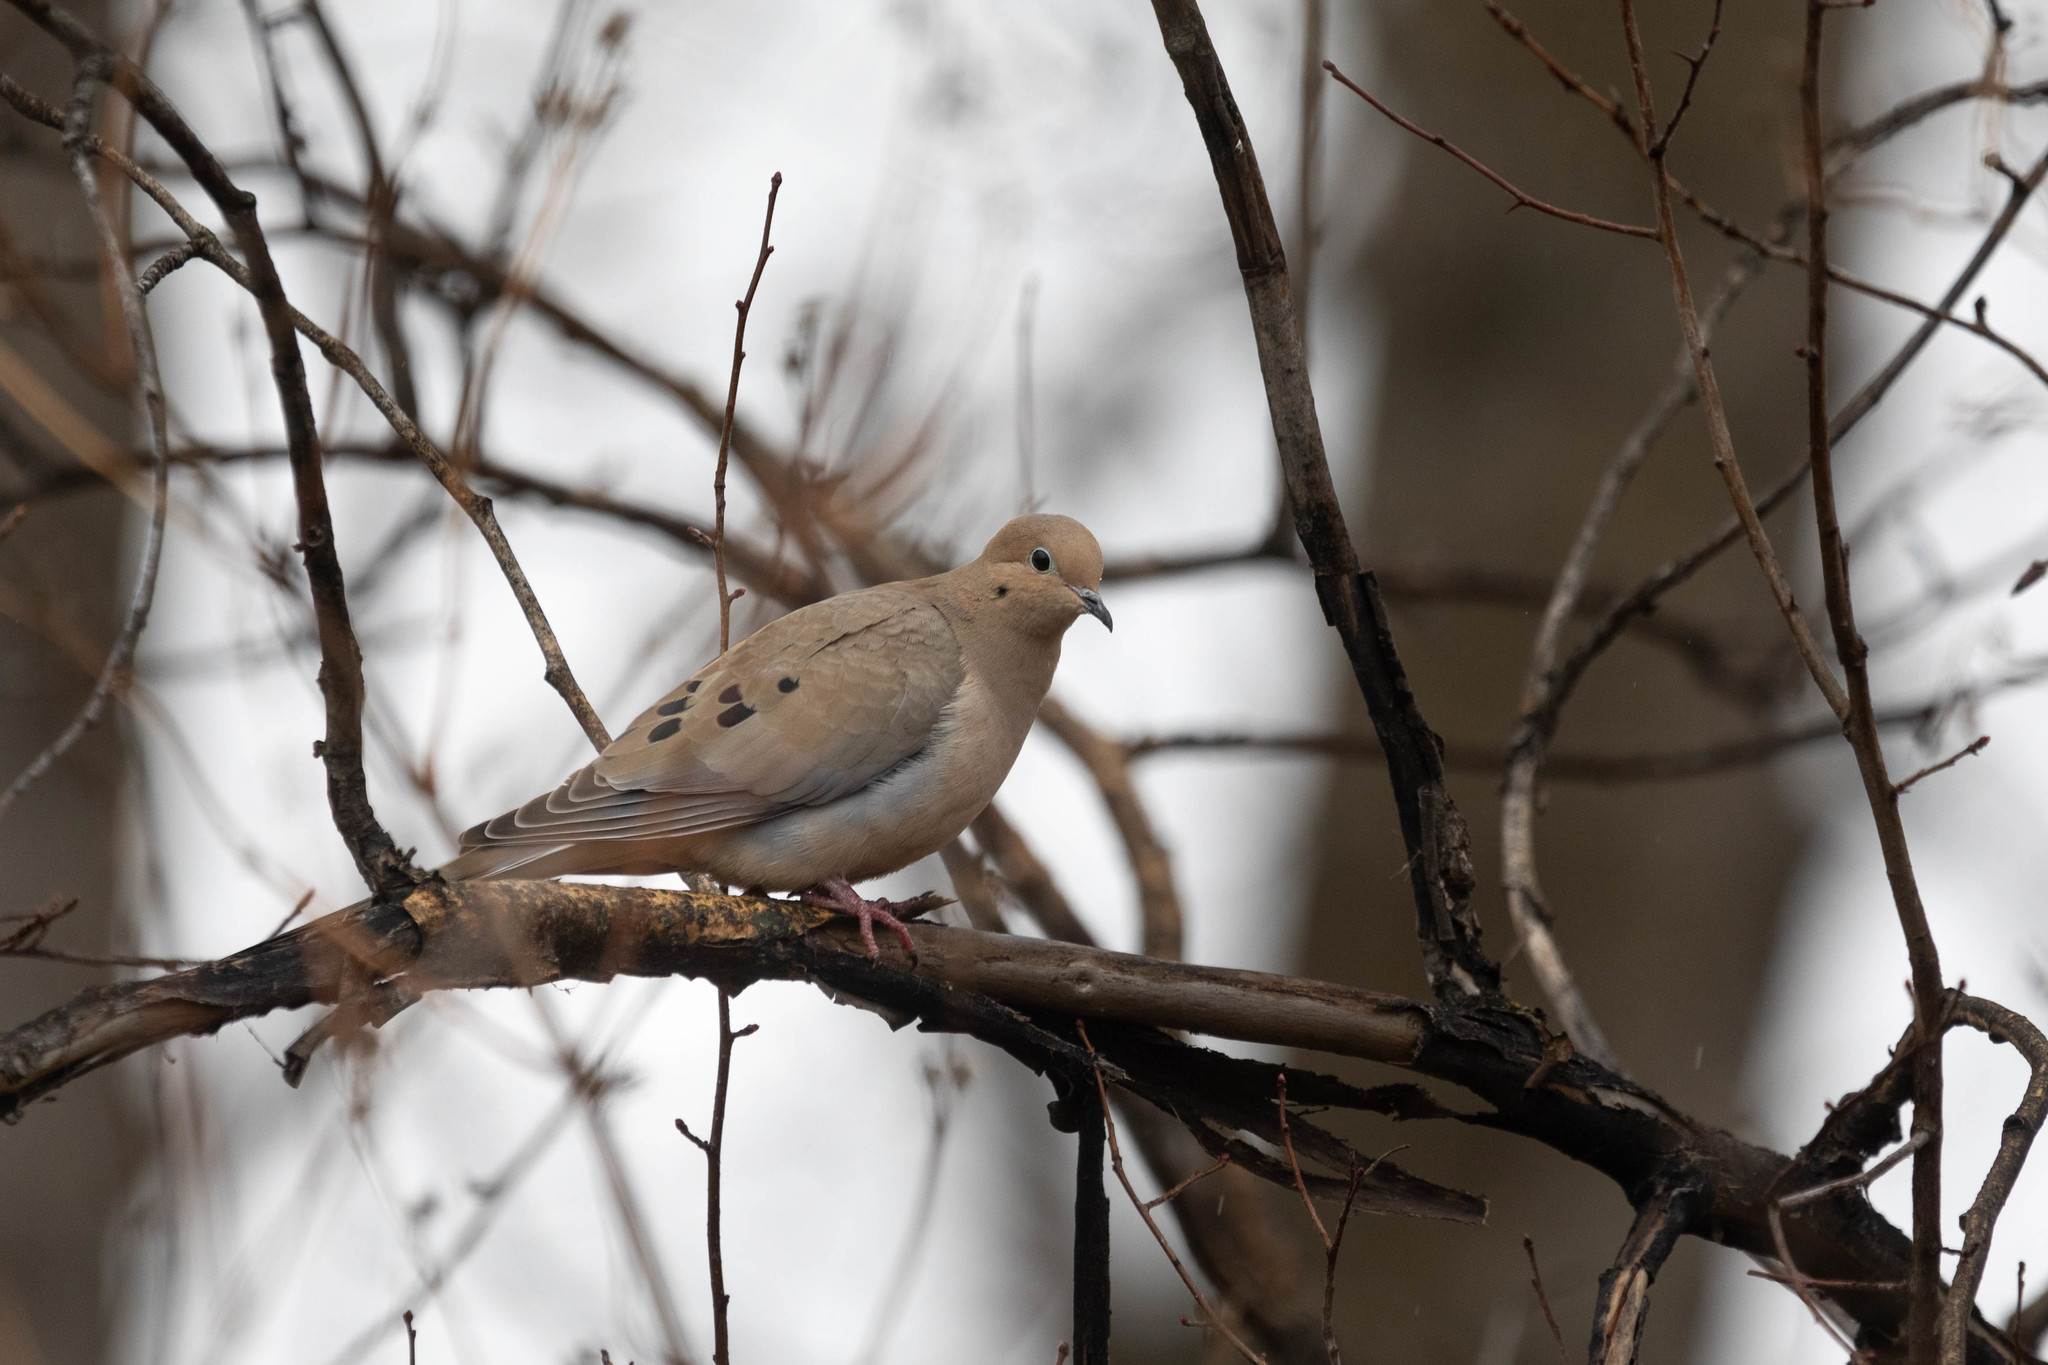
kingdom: Animalia
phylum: Chordata
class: Aves
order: Columbiformes
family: Columbidae
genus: Zenaida
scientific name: Zenaida macroura
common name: Mourning dove
